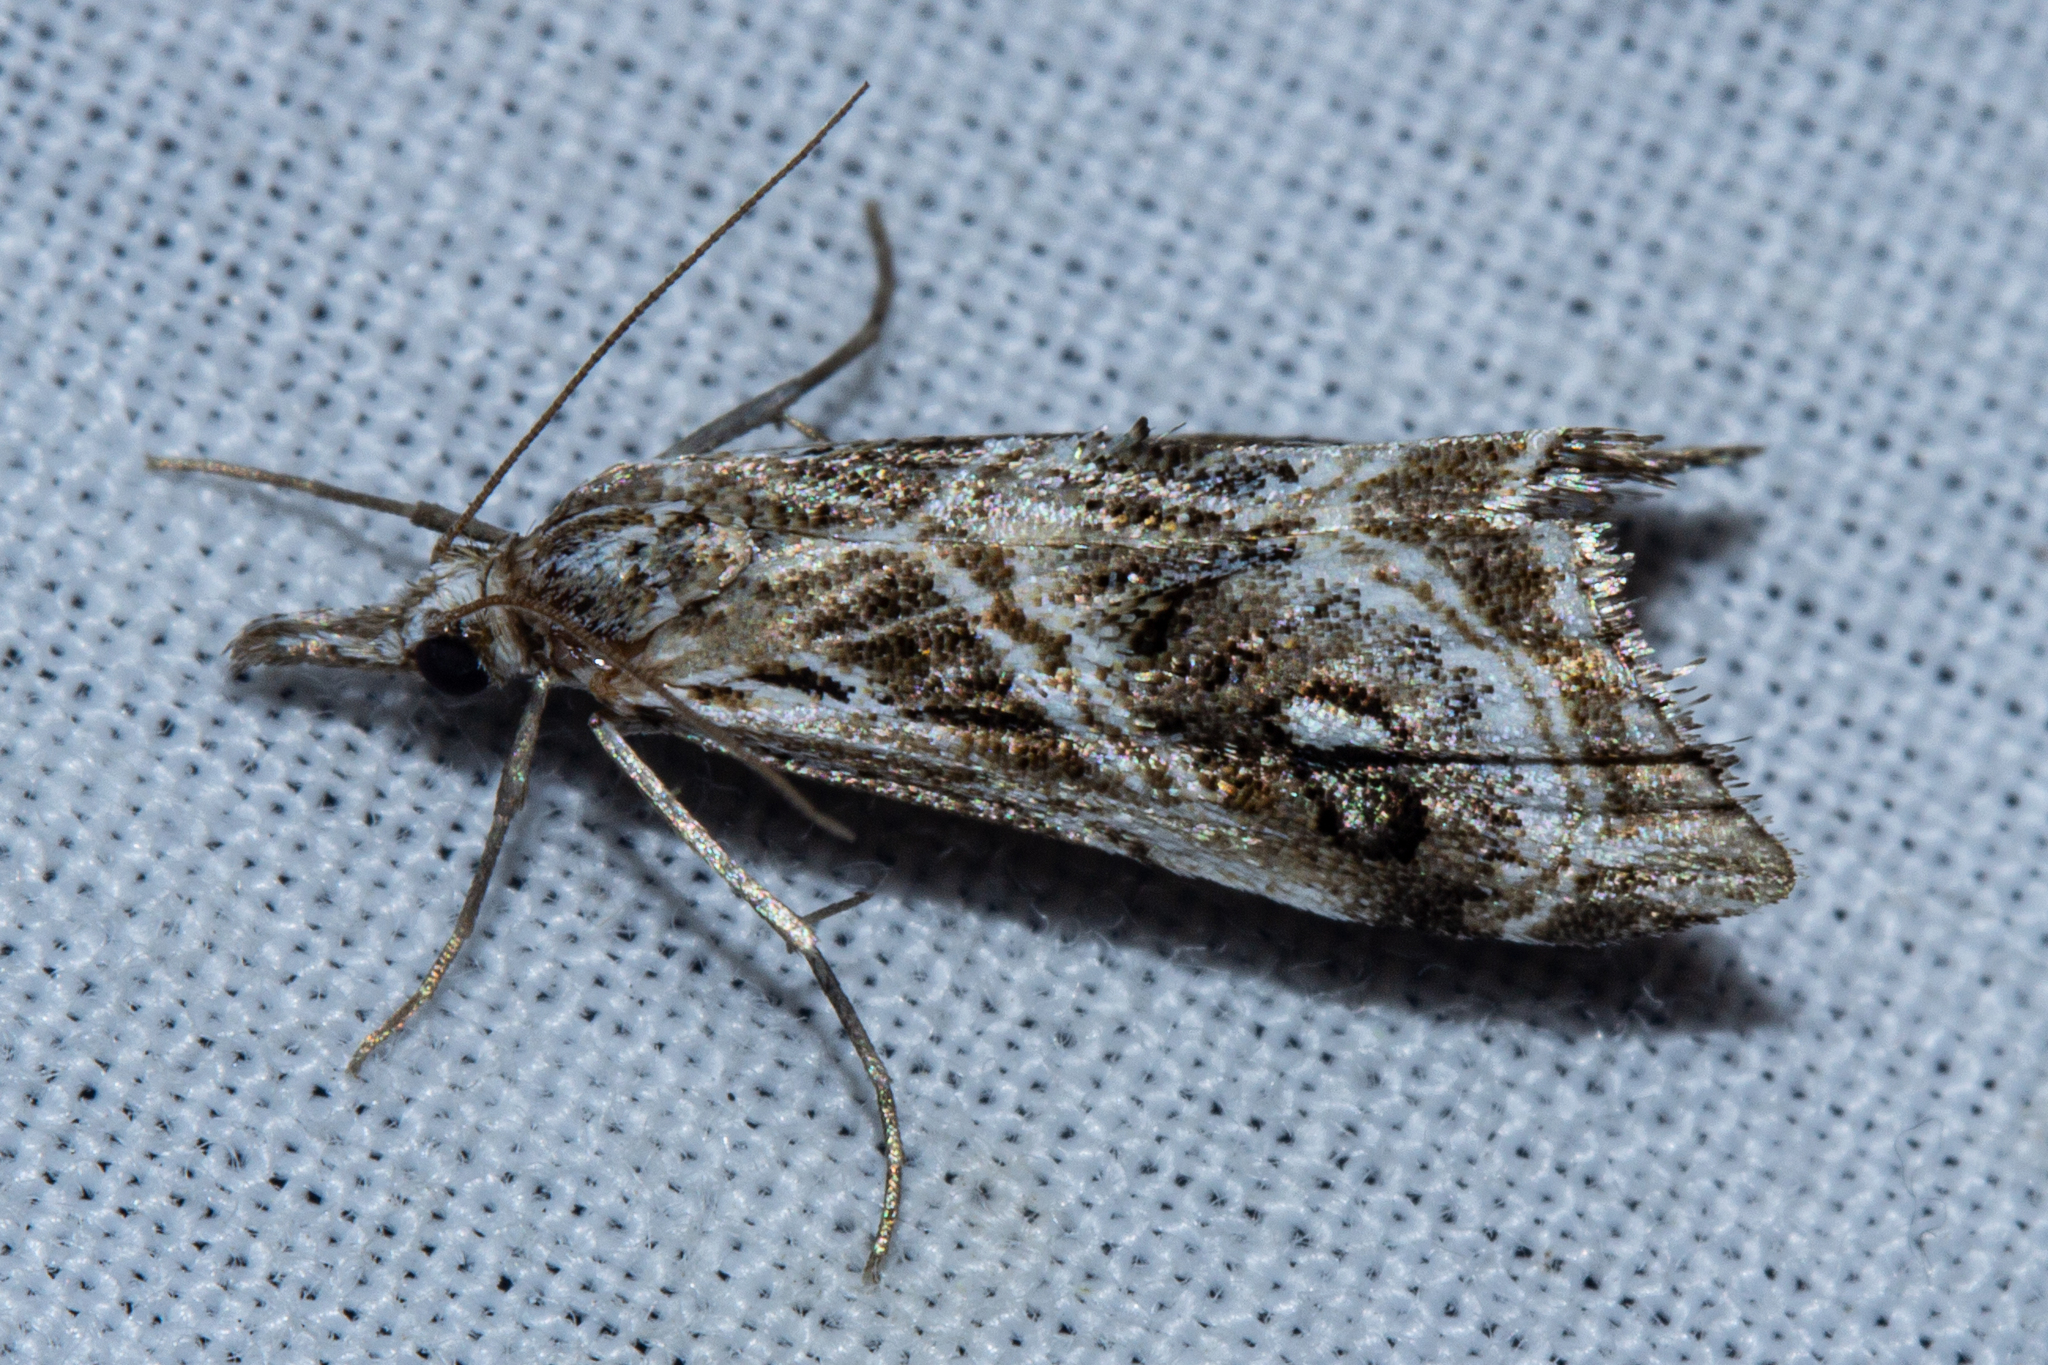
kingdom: Animalia
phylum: Arthropoda
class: Insecta
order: Lepidoptera
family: Crambidae
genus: Gadira
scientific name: Gadira acerella
